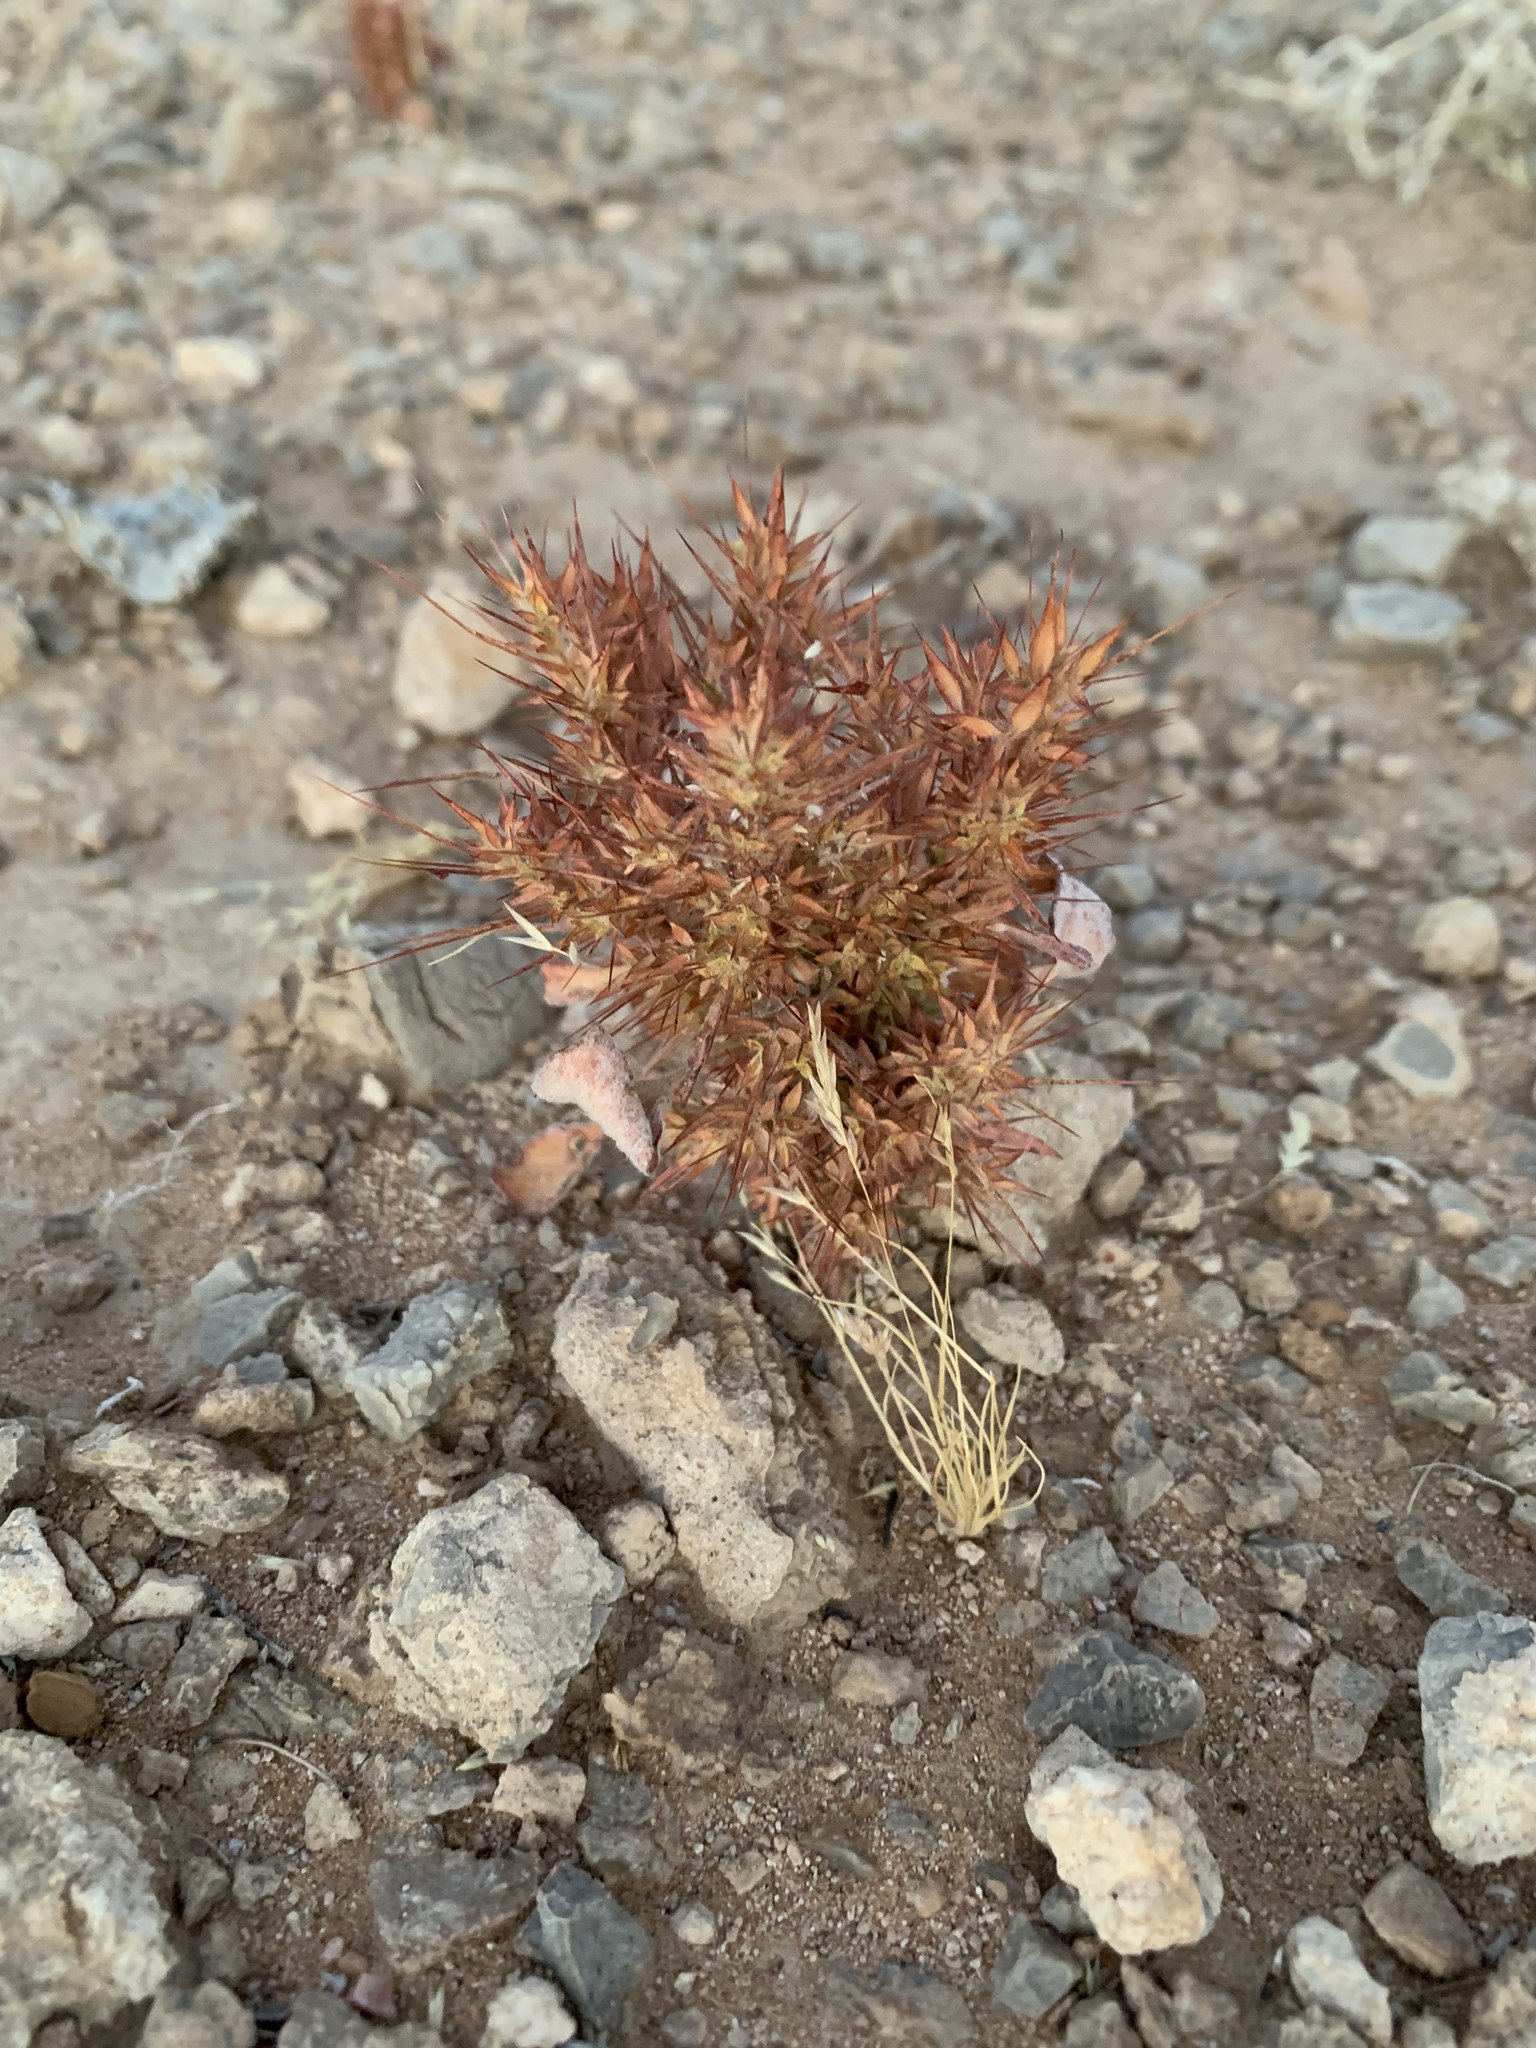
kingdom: Plantae
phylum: Tracheophyta
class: Magnoliopsida
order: Caryophyllales
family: Polygonaceae
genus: Chorizanthe
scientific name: Chorizanthe rigida
